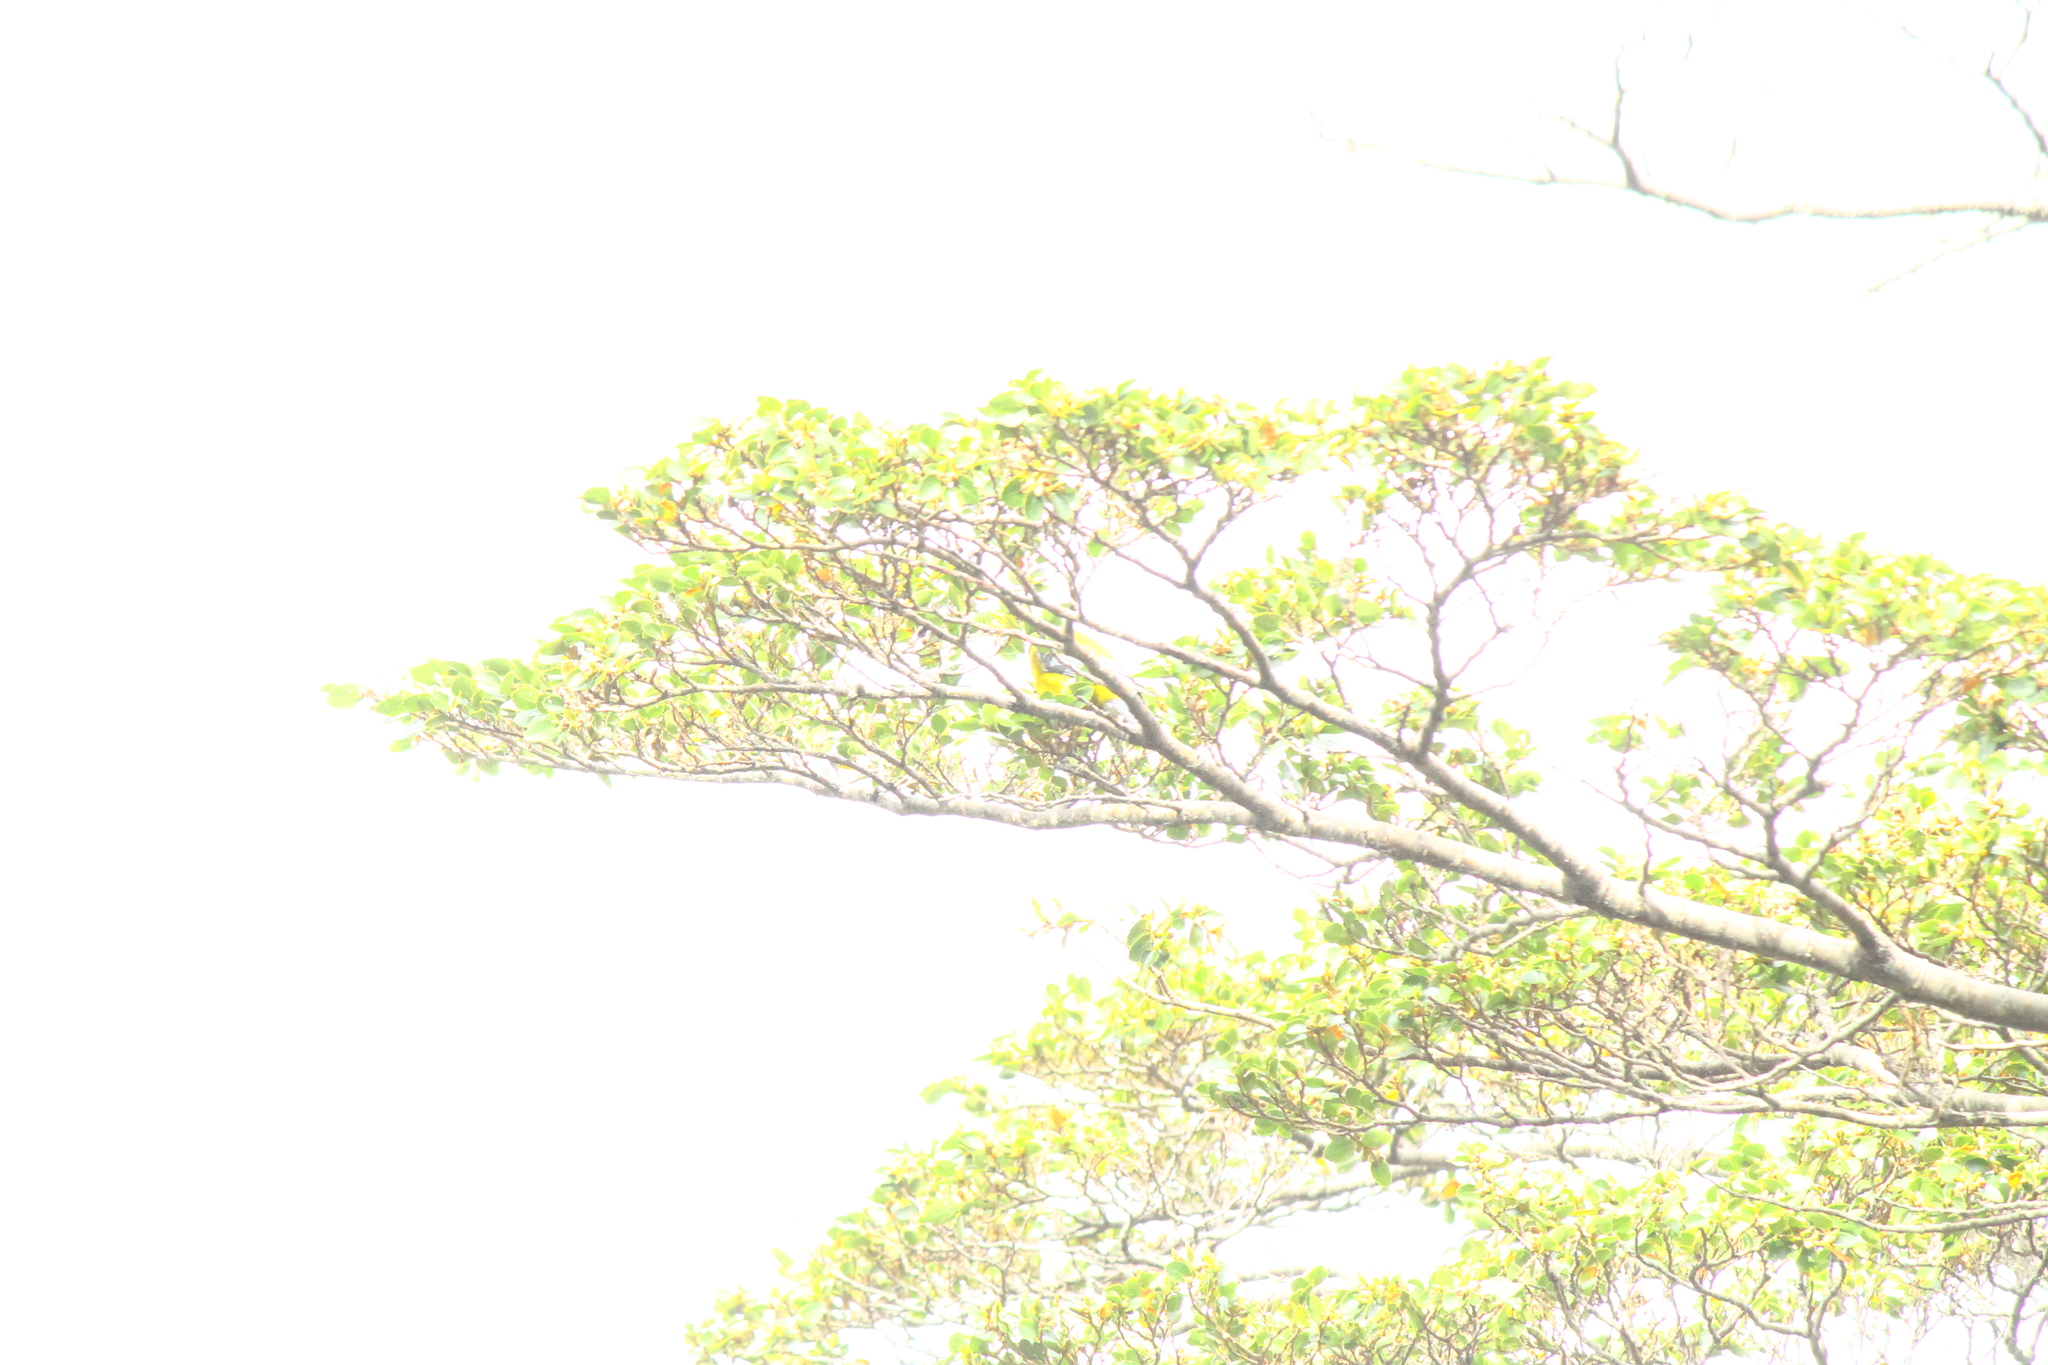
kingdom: Animalia
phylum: Chordata
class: Aves
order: Passeriformes
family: Thraupidae
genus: Phrygilus
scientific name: Phrygilus patagonicus
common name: Patagonian sierra finch
